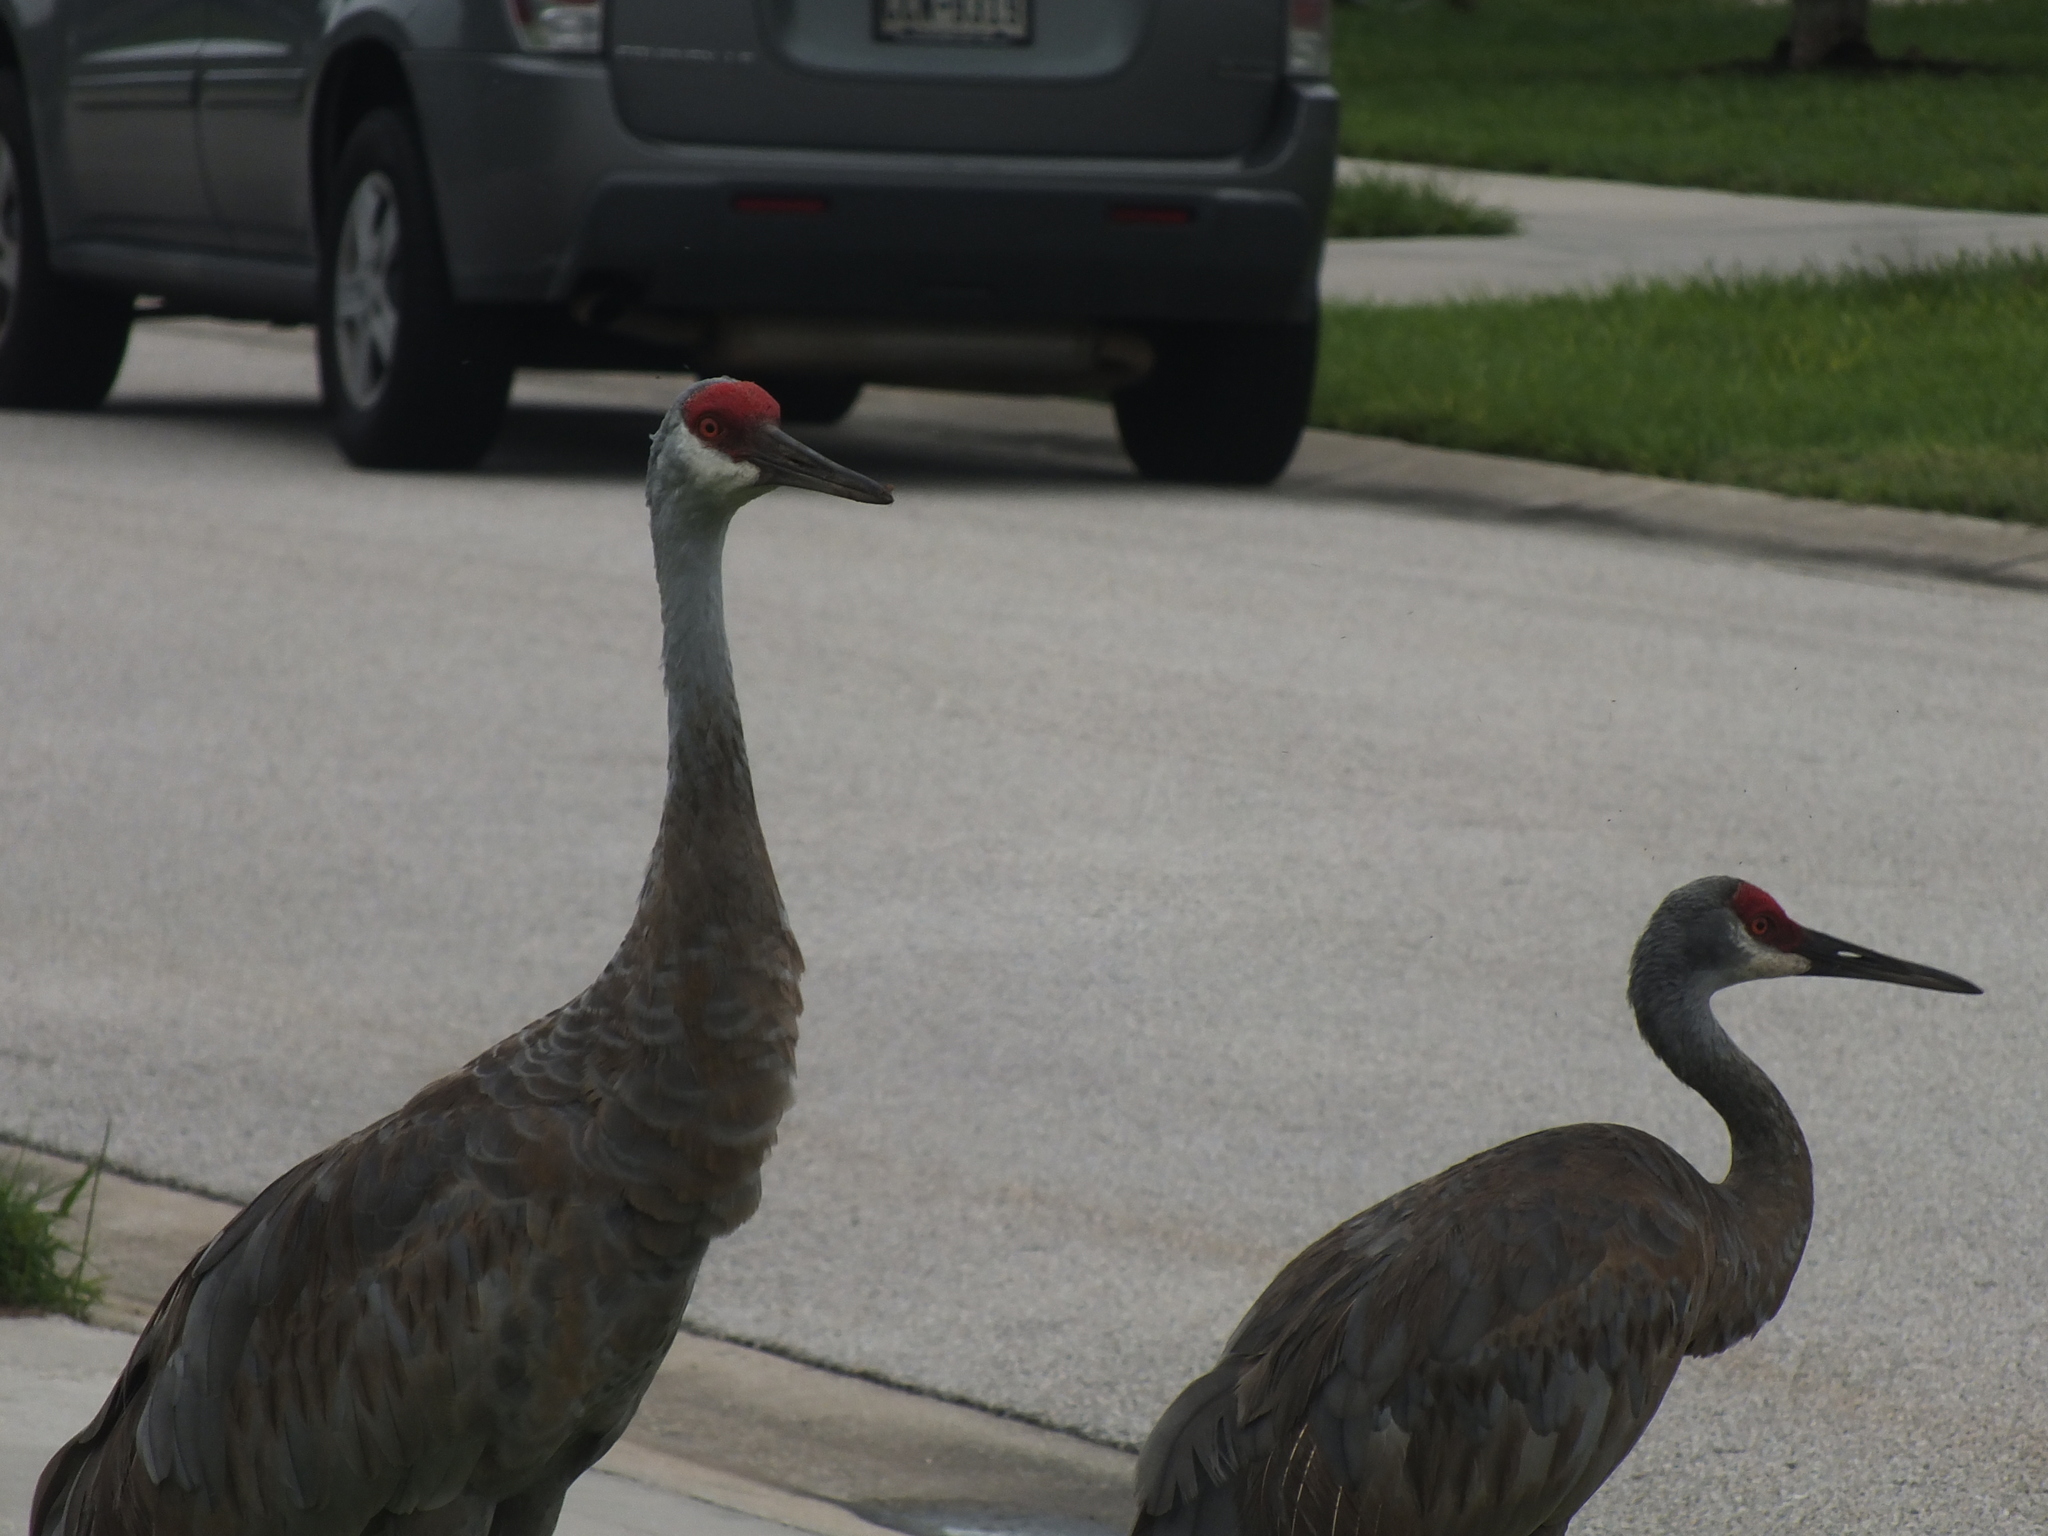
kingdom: Animalia
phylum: Chordata
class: Aves
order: Gruiformes
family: Gruidae
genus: Grus
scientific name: Grus canadensis
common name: Sandhill crane
